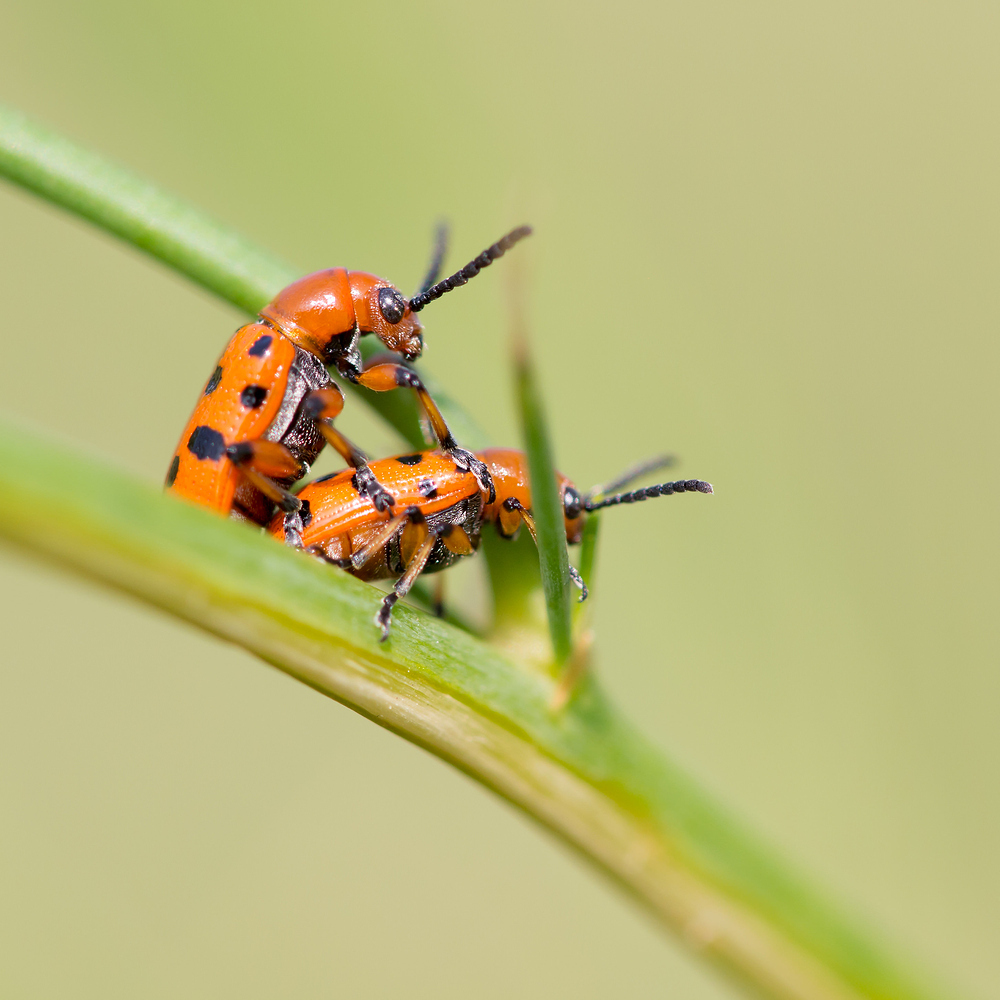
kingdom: Animalia
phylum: Arthropoda
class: Insecta
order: Coleoptera
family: Chrysomelidae
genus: Crioceris
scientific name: Crioceris duodecimpunctata
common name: Twelve-spotted asparagus beetle
